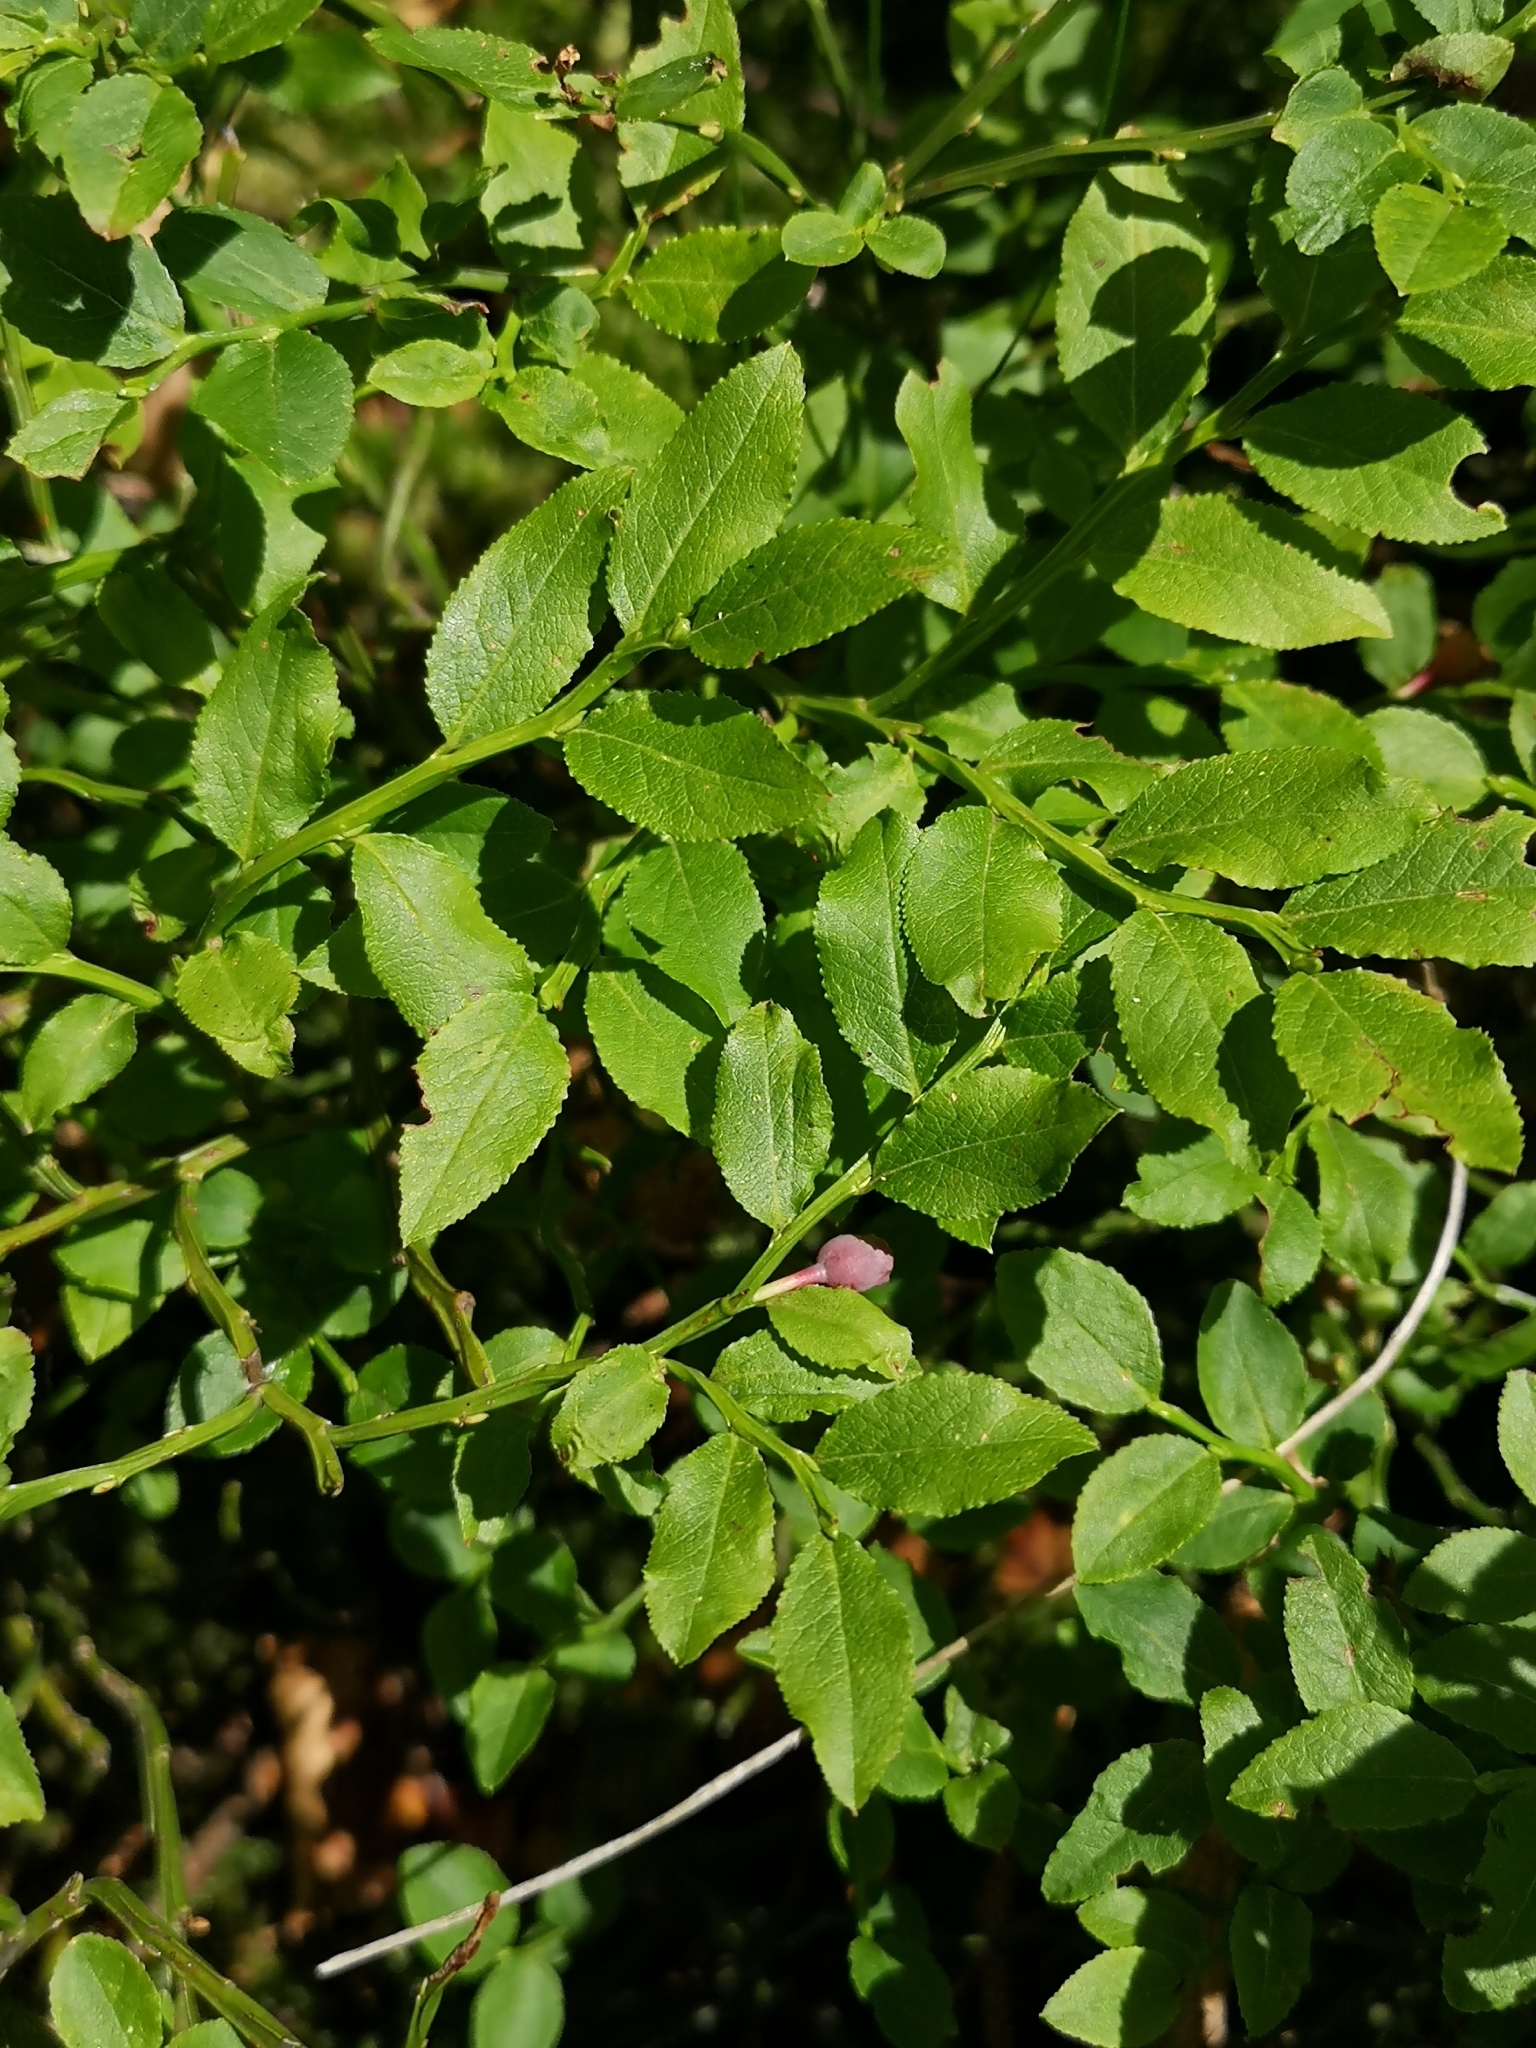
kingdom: Plantae
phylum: Tracheophyta
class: Magnoliopsida
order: Ericales
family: Ericaceae
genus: Vaccinium
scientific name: Vaccinium myrtillus
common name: Bilberry
